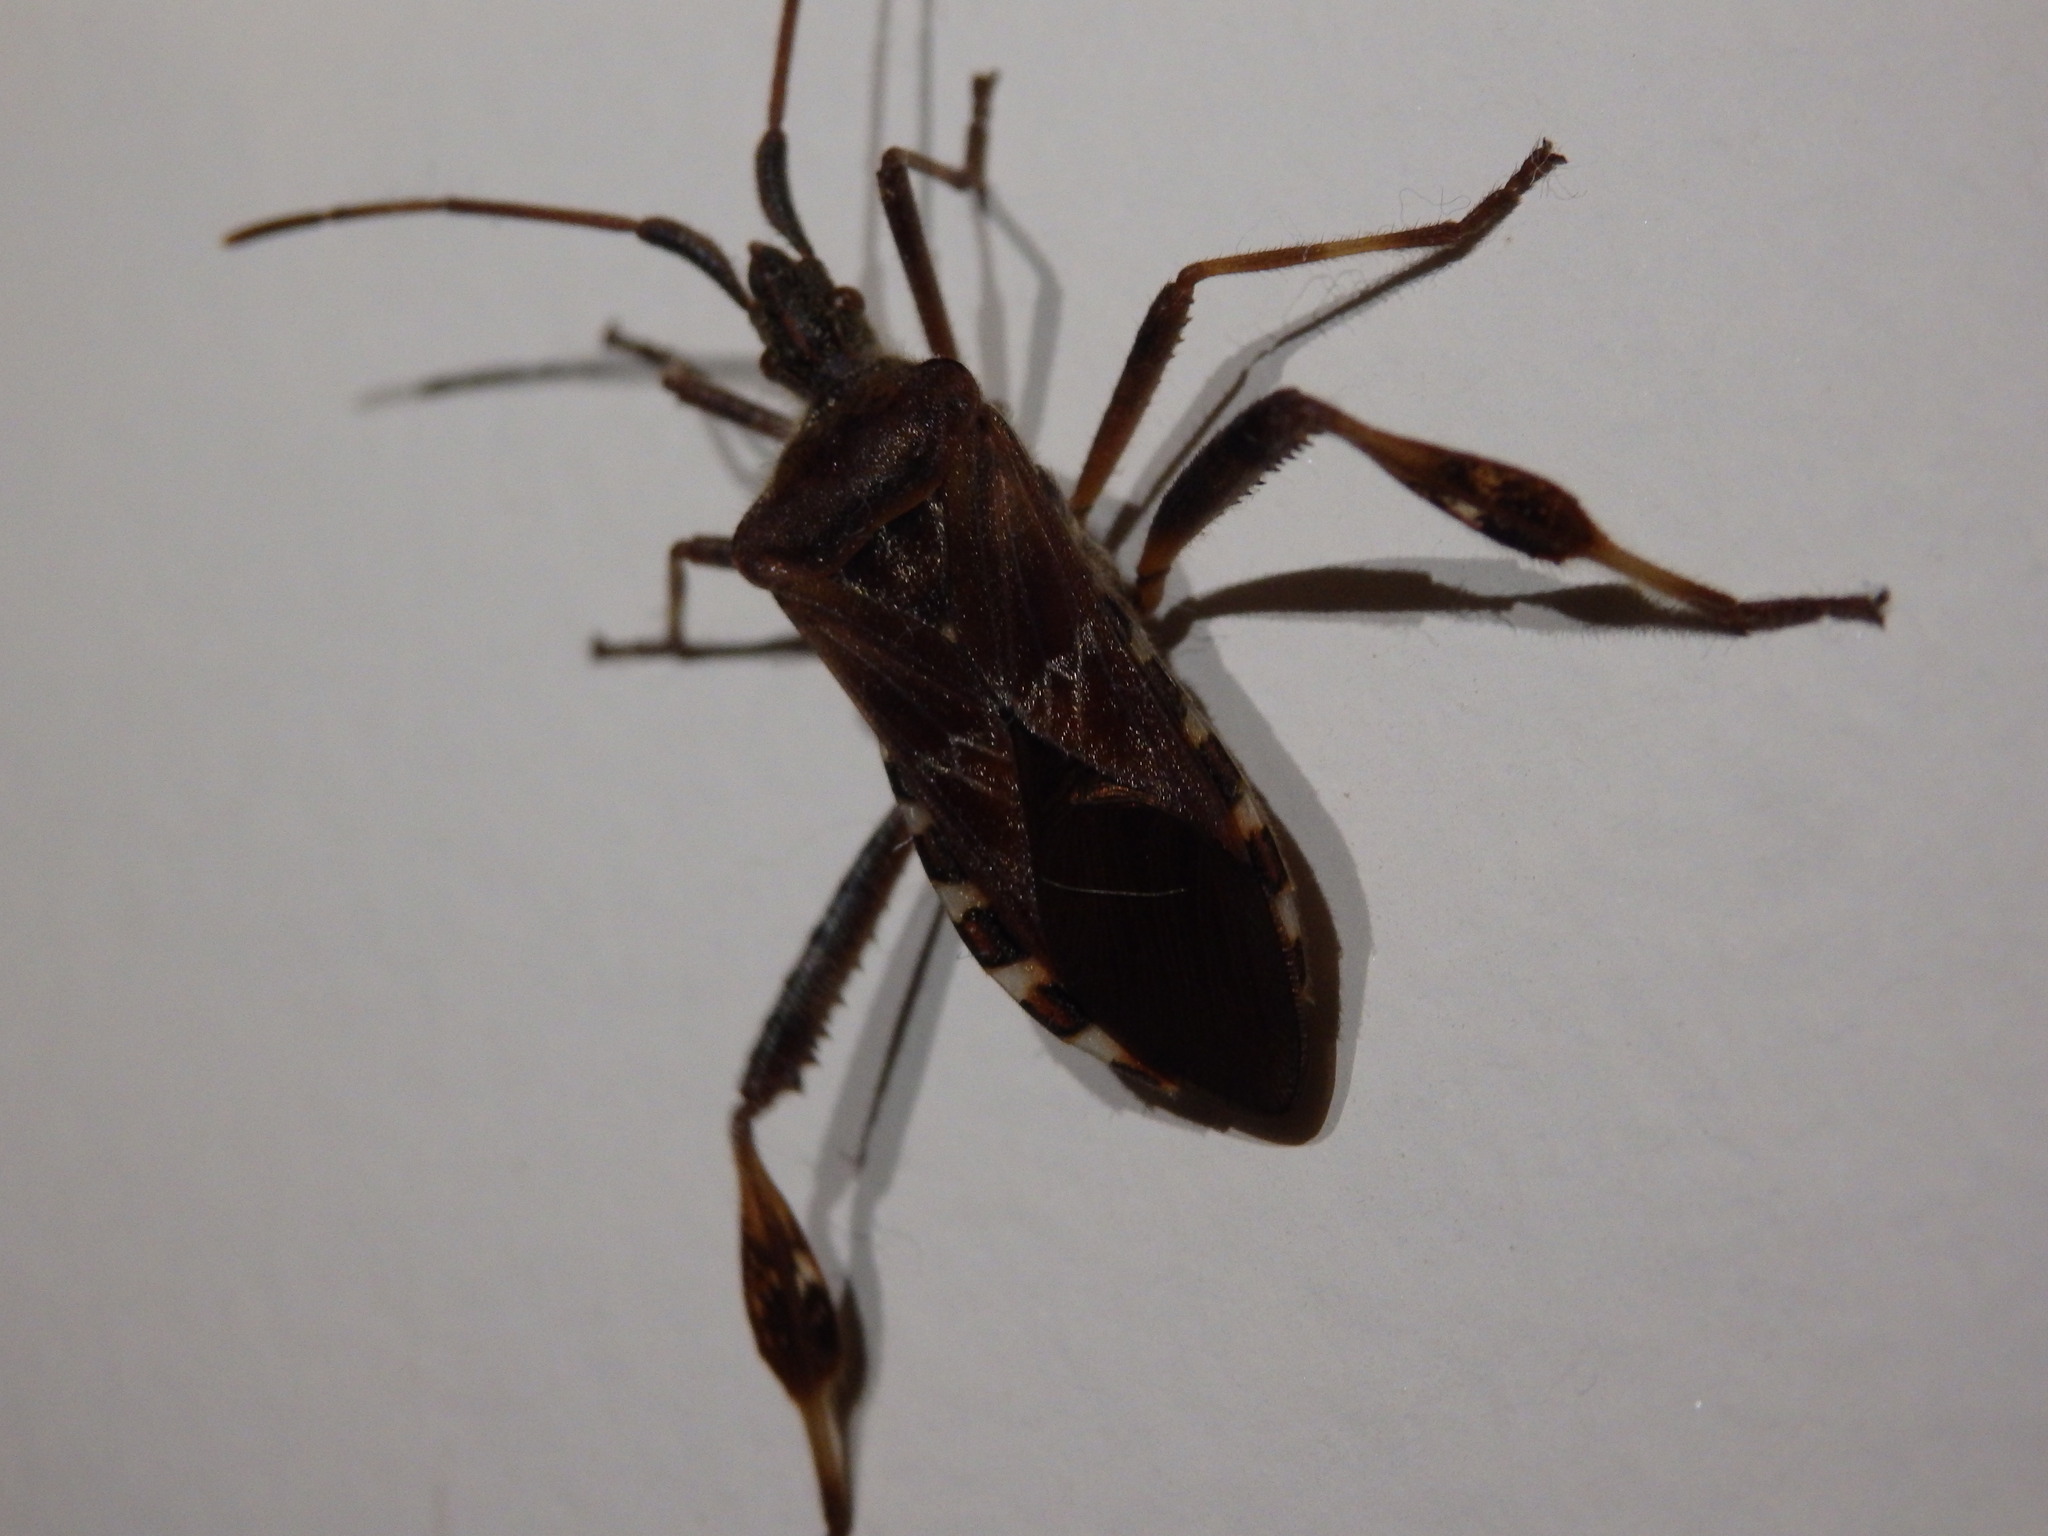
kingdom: Animalia
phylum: Arthropoda
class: Insecta
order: Hemiptera
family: Coreidae
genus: Leptoglossus
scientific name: Leptoglossus occidentalis
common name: Western conifer-seed bug
